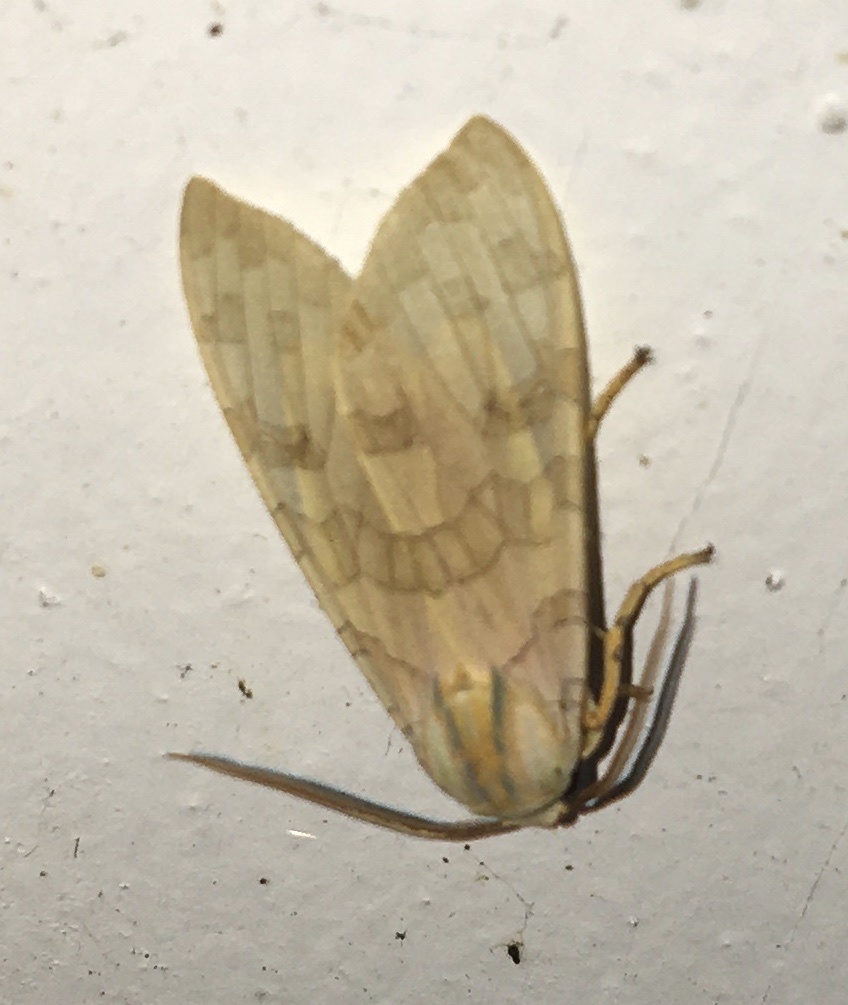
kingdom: Animalia
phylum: Arthropoda
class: Insecta
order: Lepidoptera
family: Erebidae
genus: Halysidota
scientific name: Halysidota
